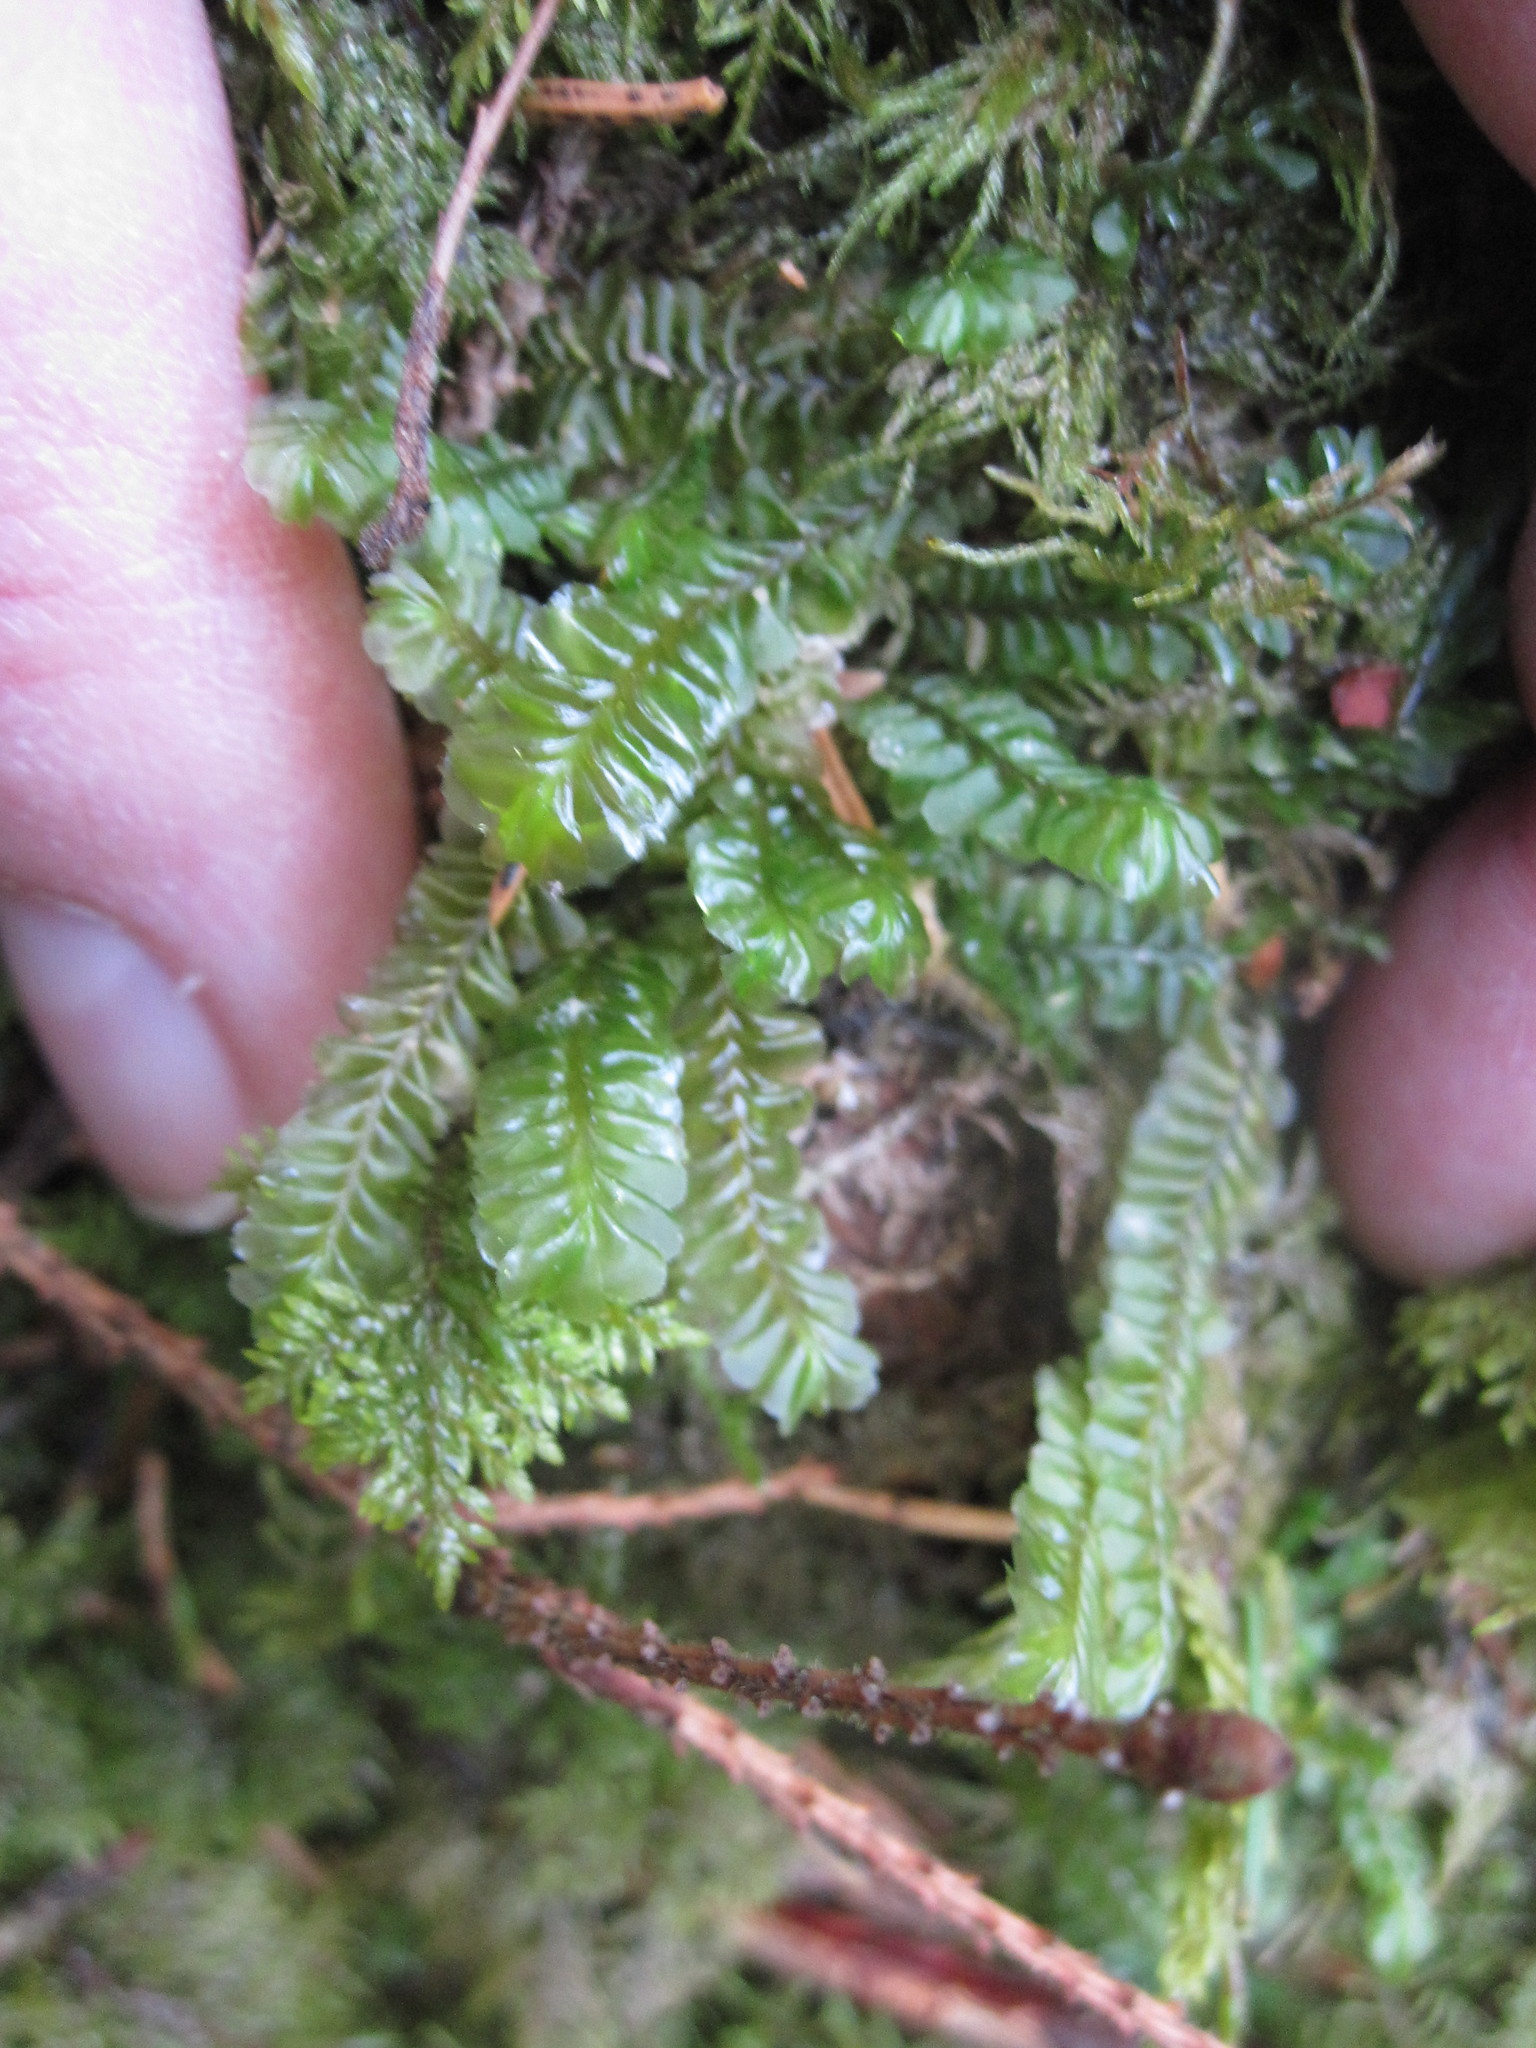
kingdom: Plantae
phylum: Marchantiophyta
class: Jungermanniopsida
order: Jungermanniales
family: Plagiochilaceae
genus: Plagiochila
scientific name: Plagiochila asplenioides
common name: Greater featherwort
